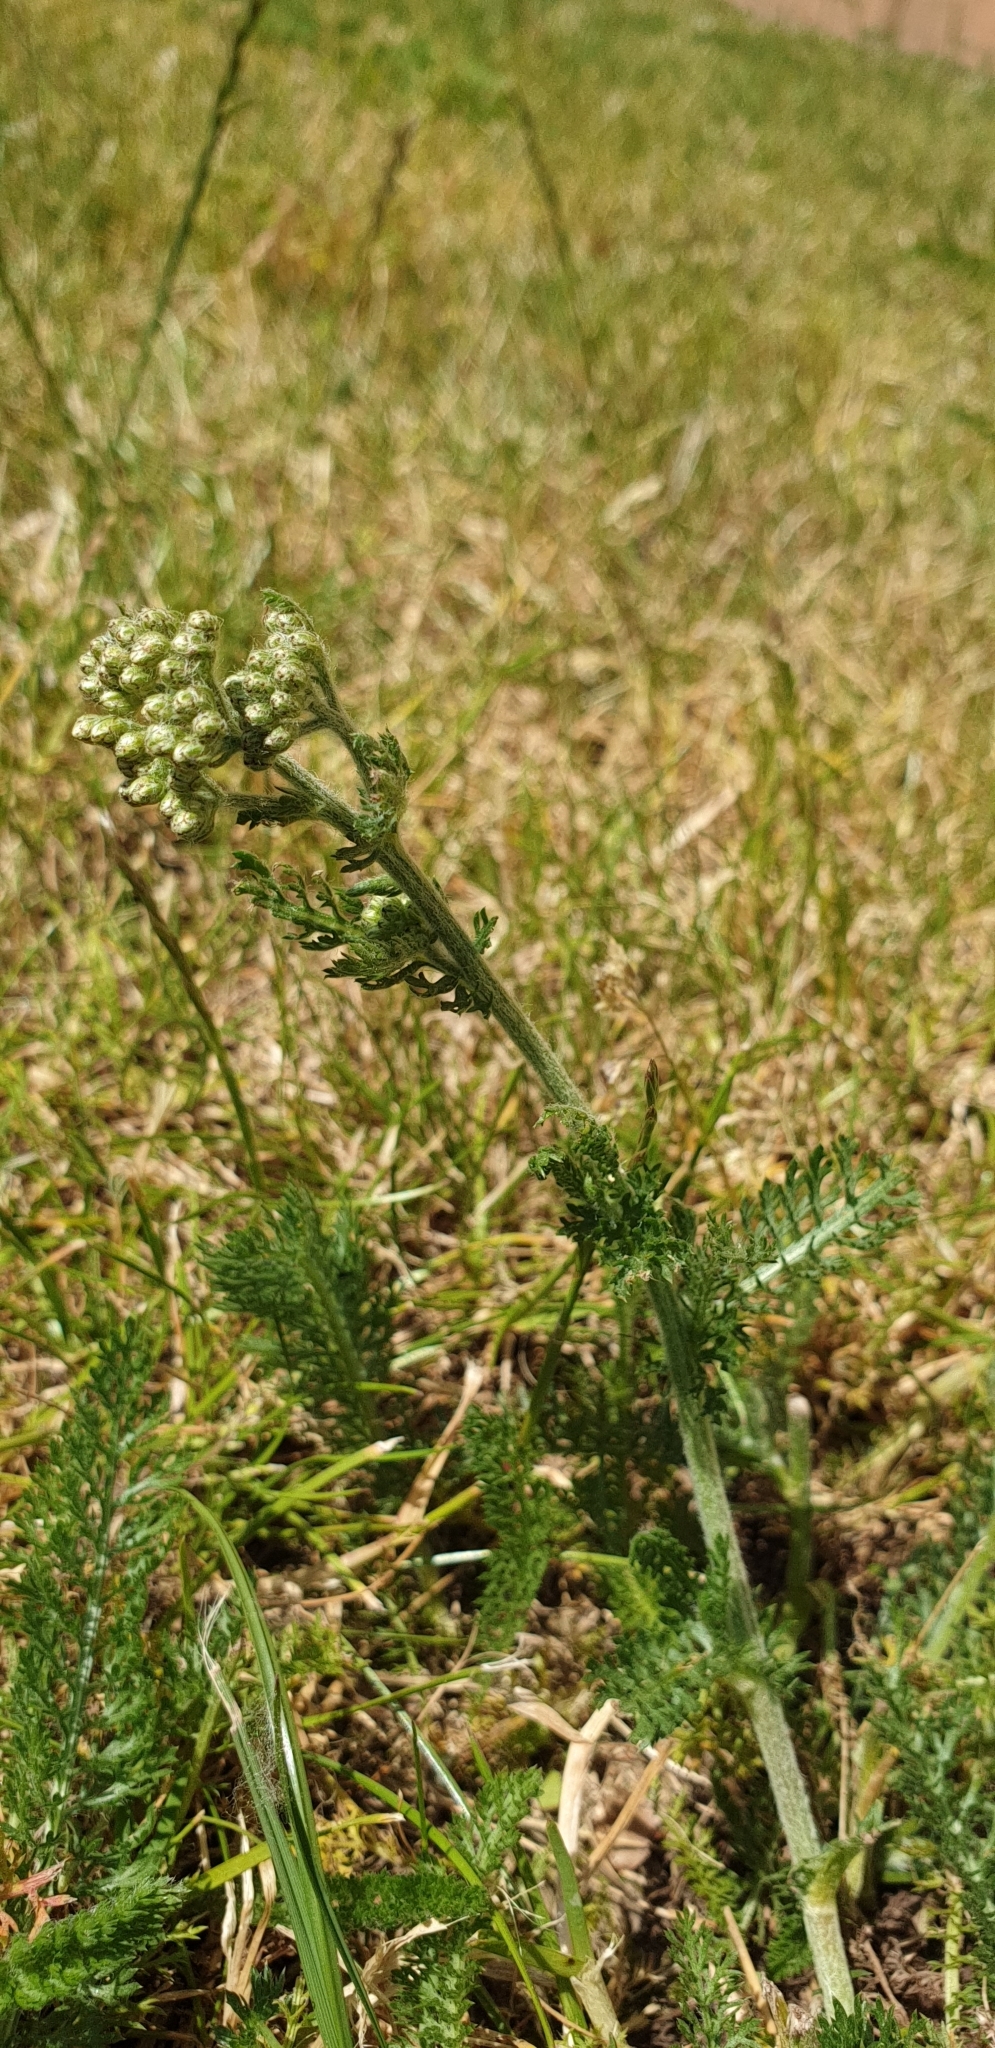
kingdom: Plantae
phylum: Tracheophyta
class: Magnoliopsida
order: Asterales
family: Asteraceae
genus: Achillea
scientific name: Achillea millefolium
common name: Yarrow
